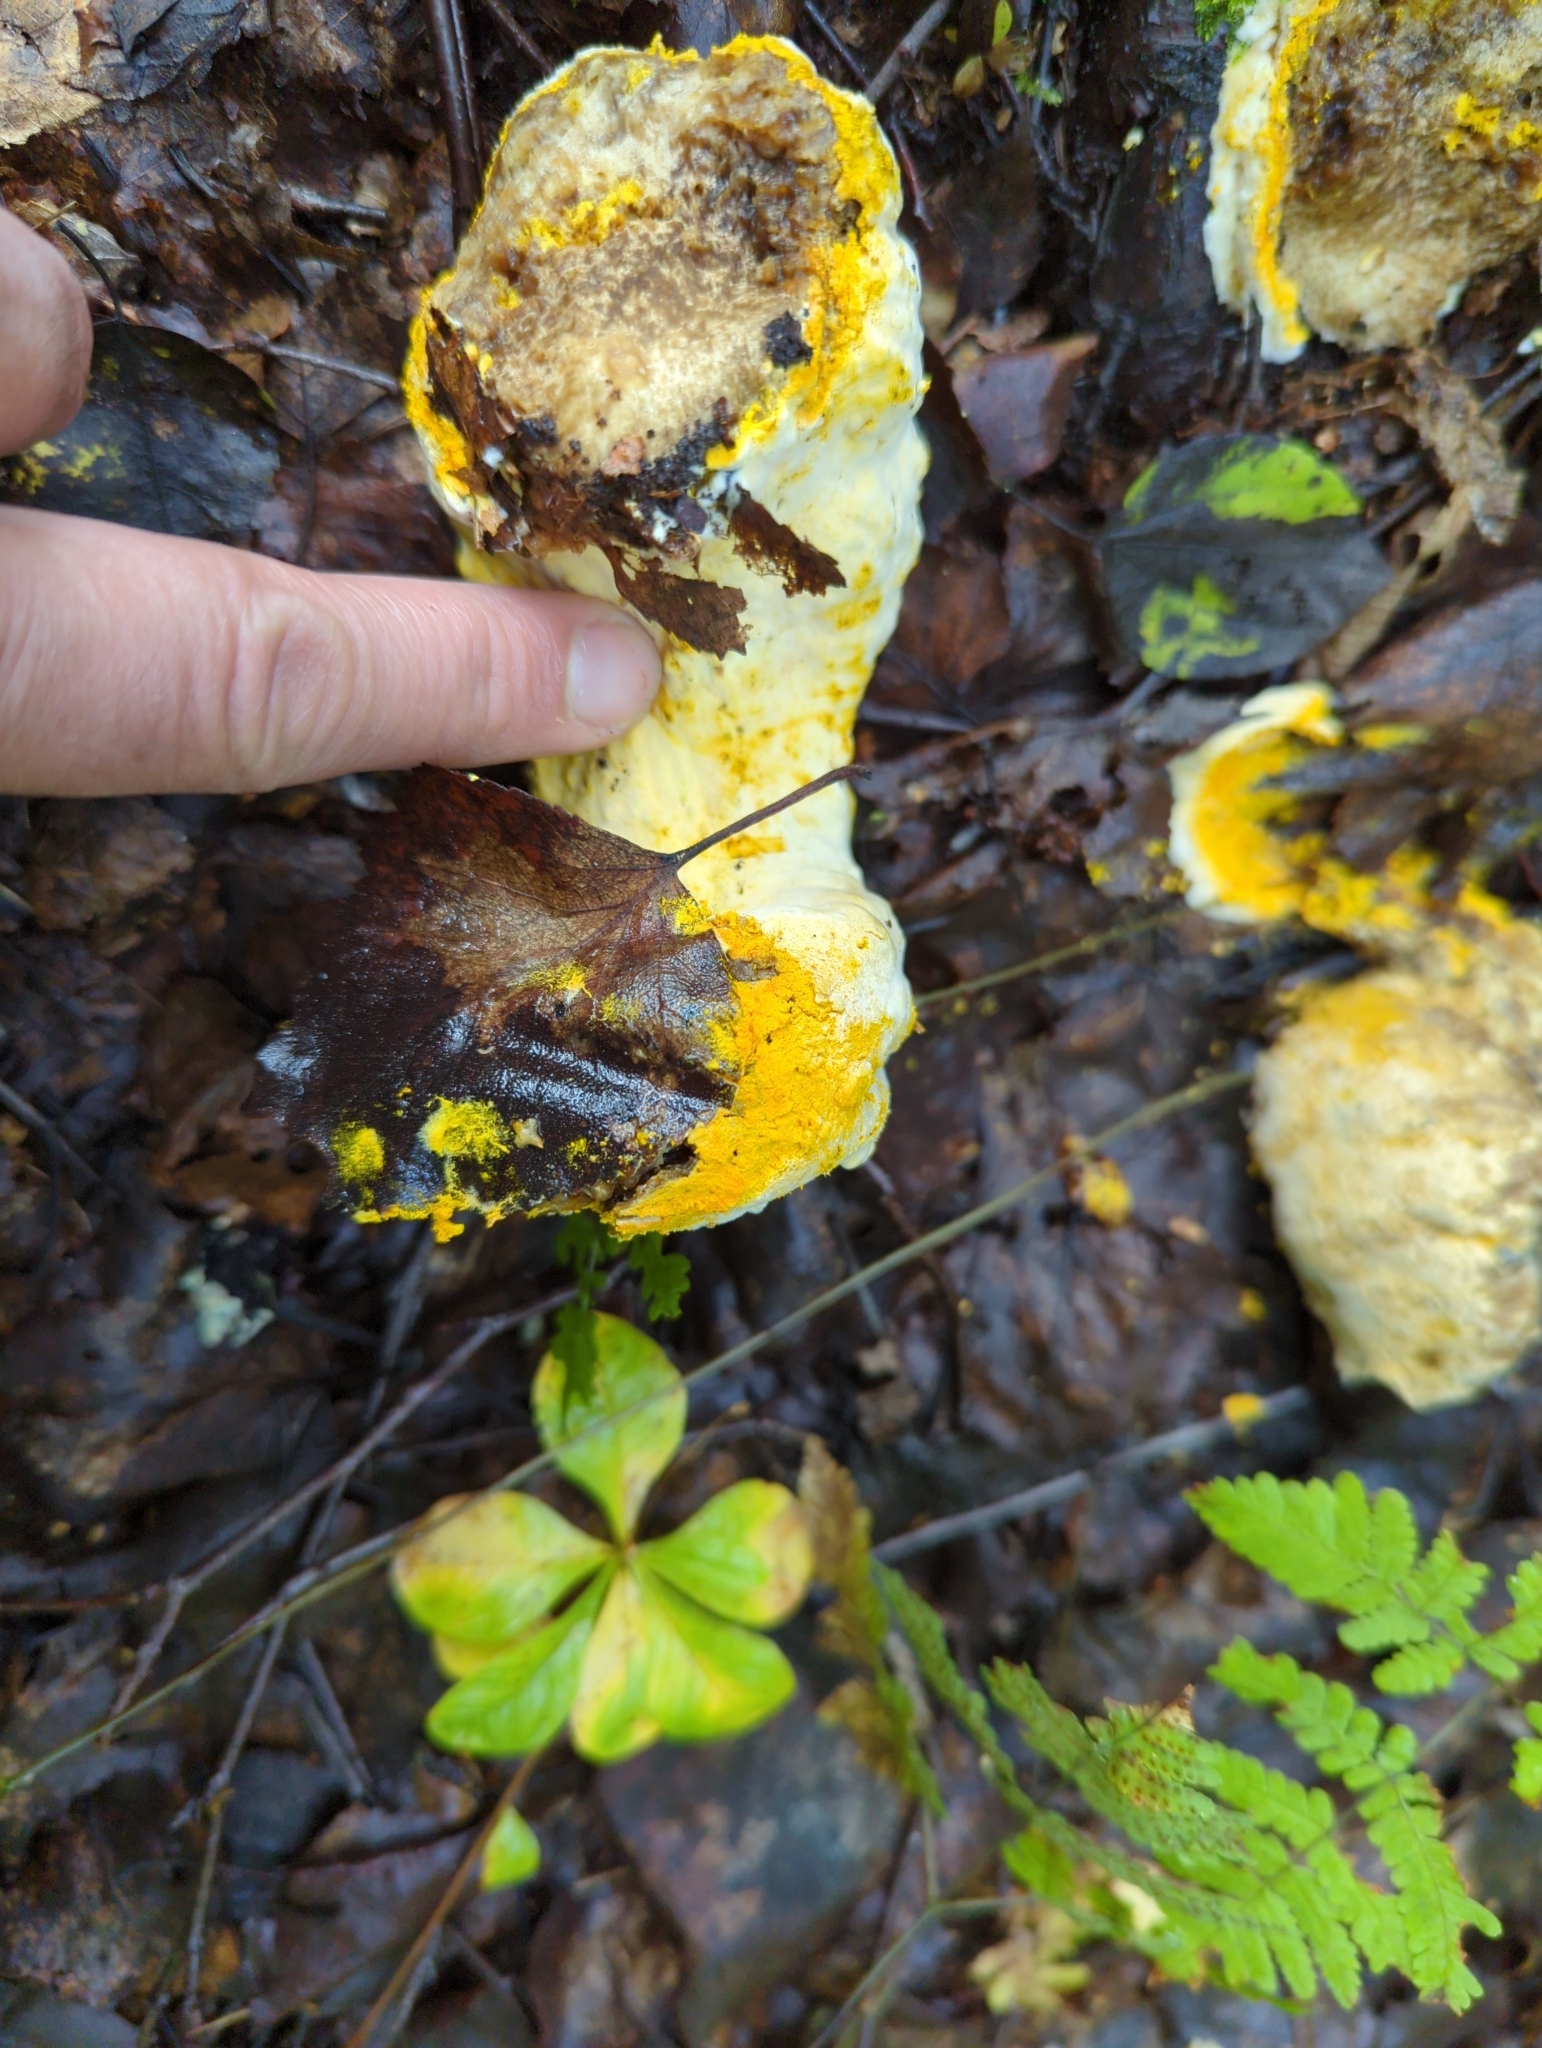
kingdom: Fungi
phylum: Ascomycota
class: Sordariomycetes
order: Hypocreales
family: Hypocreaceae
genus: Hypomyces
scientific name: Hypomyces chrysospermus
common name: Bolete mould
